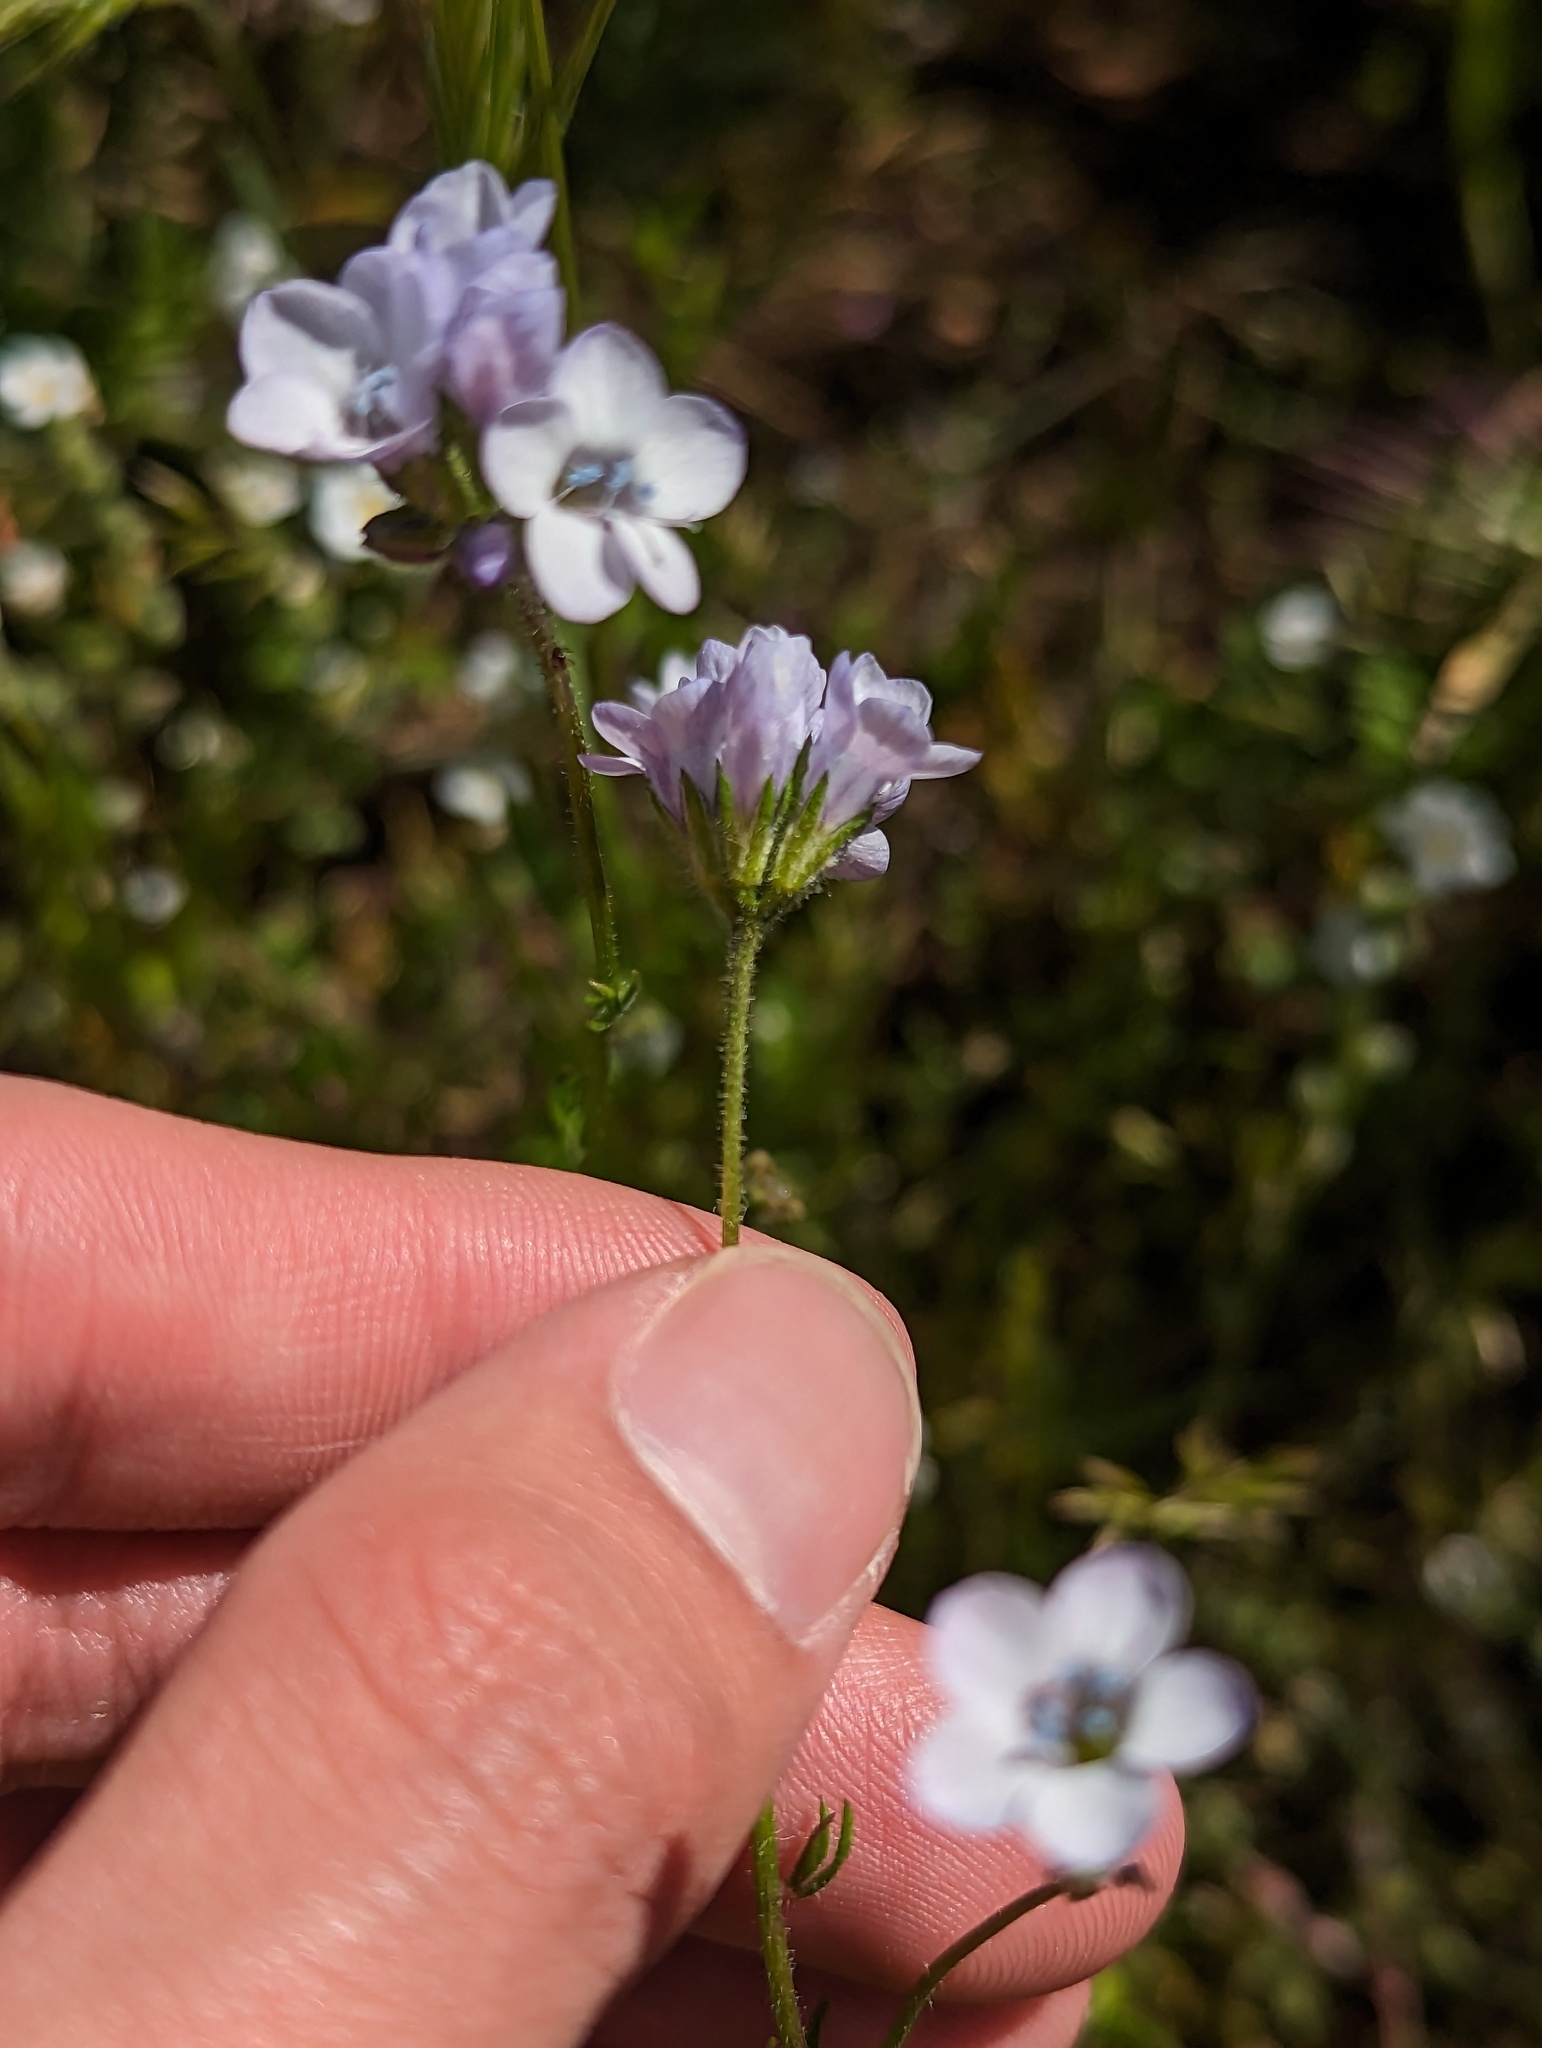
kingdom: Plantae
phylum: Tracheophyta
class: Magnoliopsida
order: Ericales
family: Polemoniaceae
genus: Gilia
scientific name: Gilia angelensis
